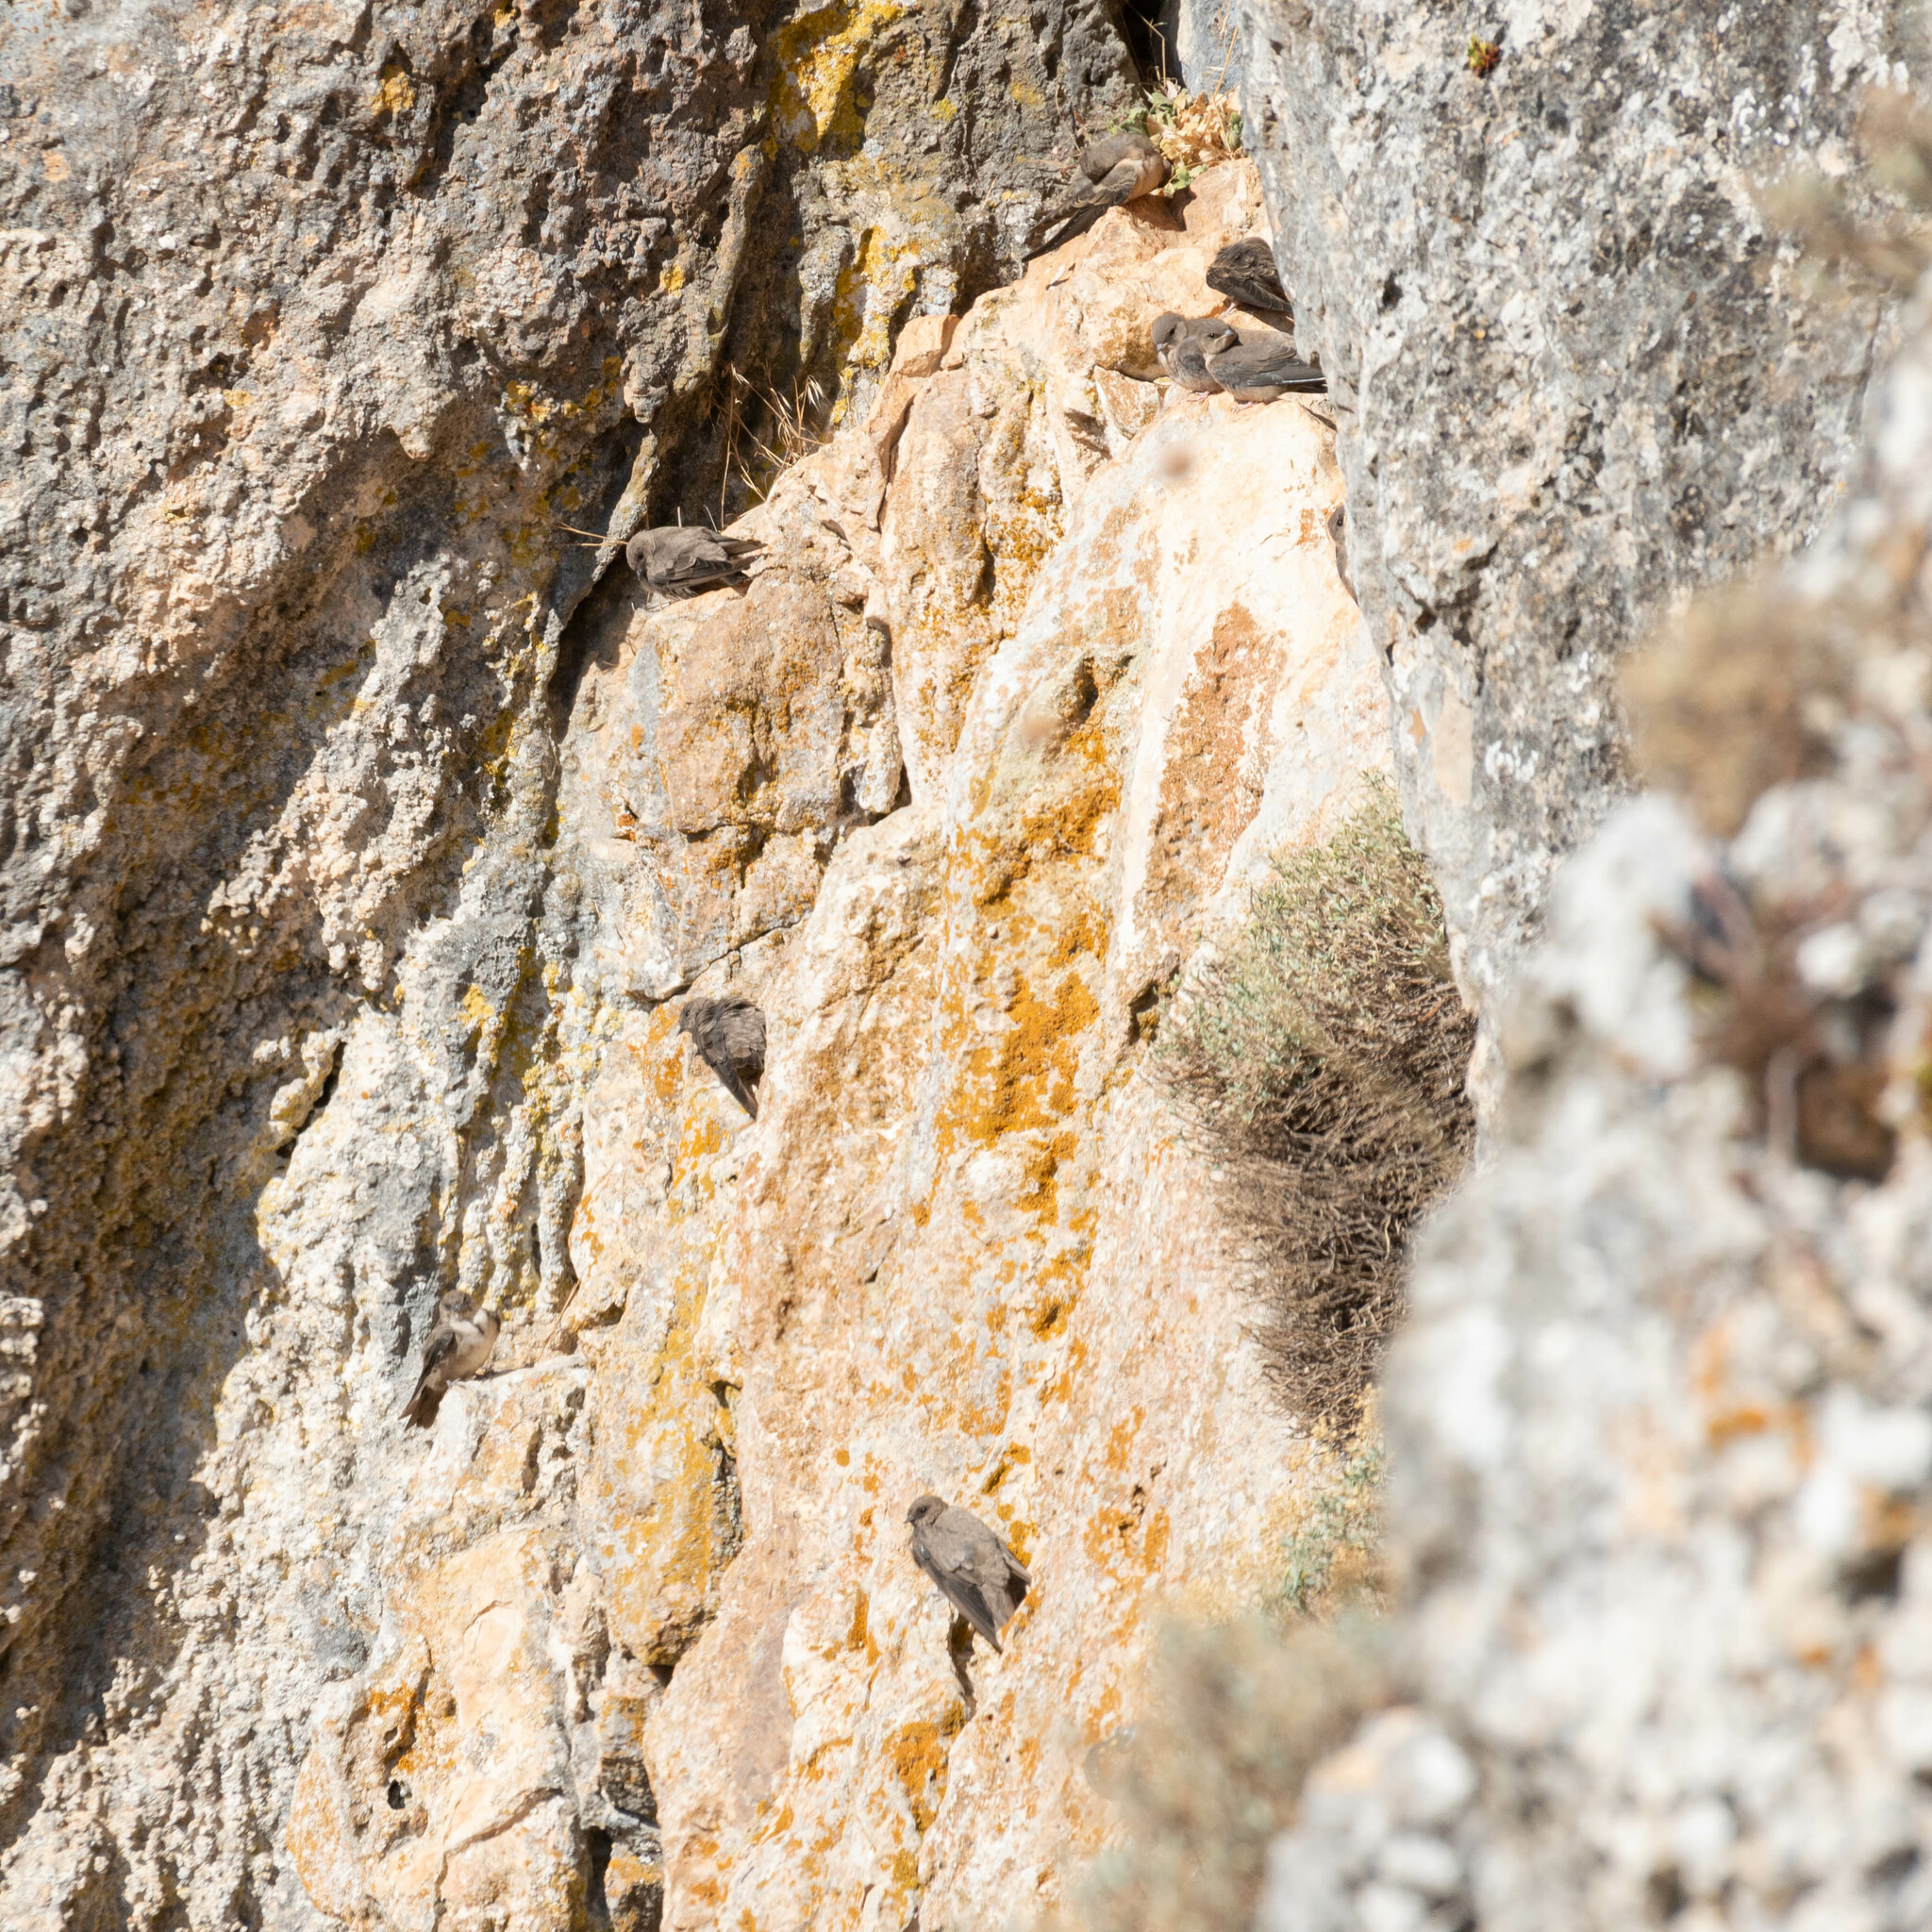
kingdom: Animalia
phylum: Chordata
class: Aves
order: Passeriformes
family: Hirundinidae
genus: Ptyonoprogne
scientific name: Ptyonoprogne rupestris
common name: Eurasian crag martin
